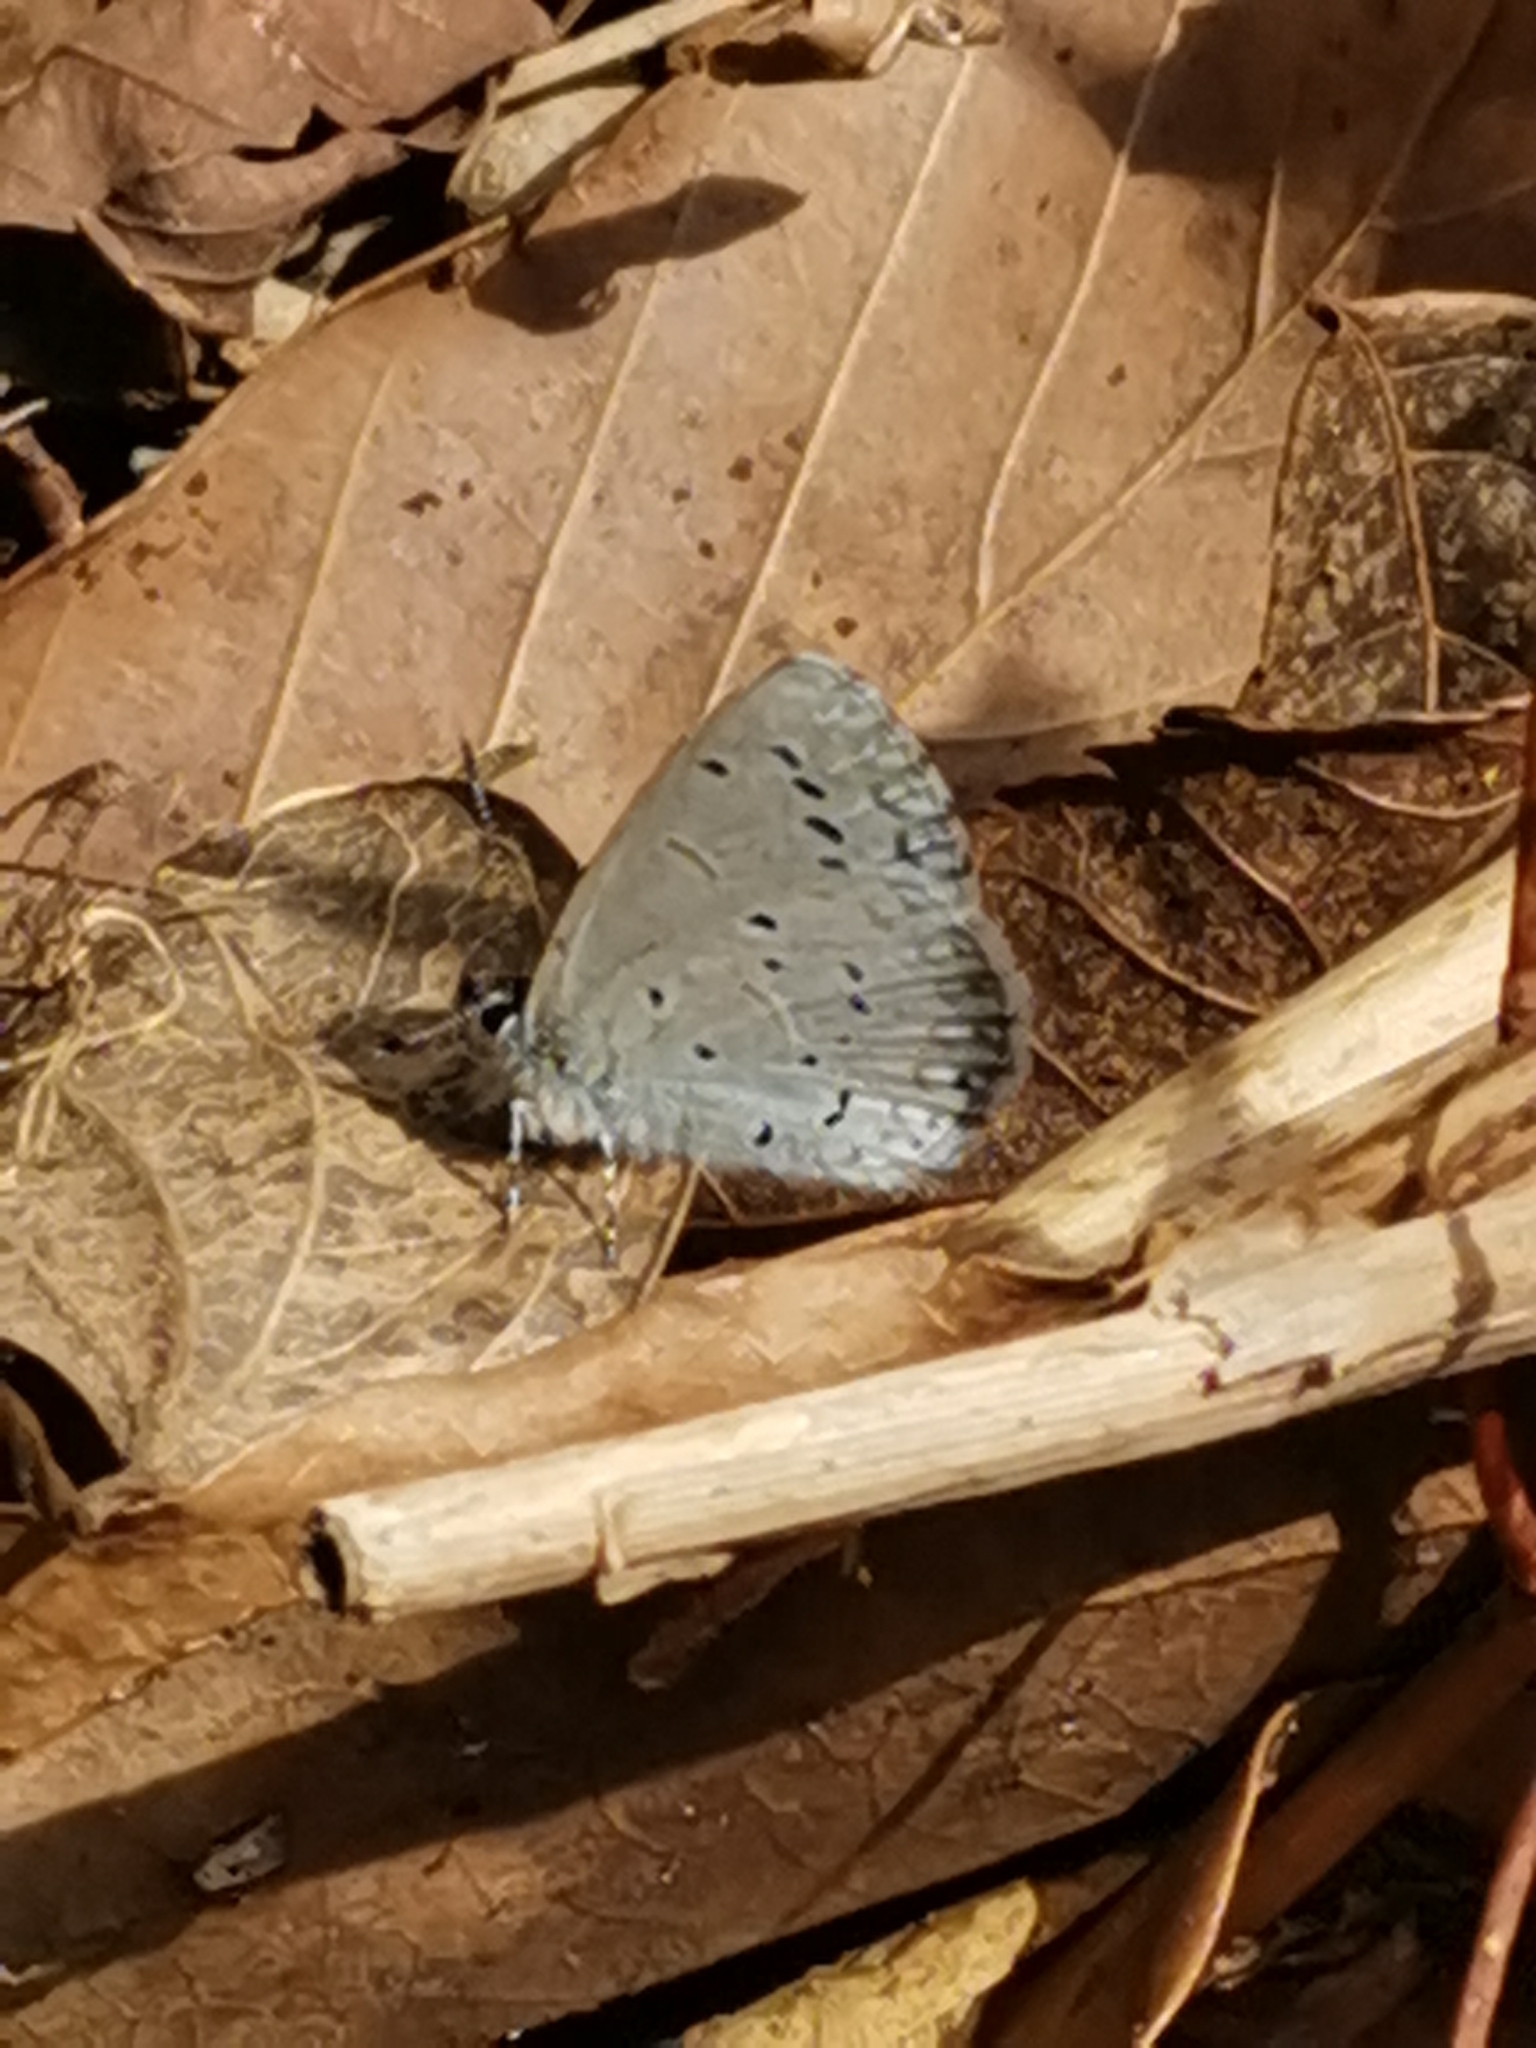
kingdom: Animalia
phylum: Arthropoda
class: Insecta
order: Lepidoptera
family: Lycaenidae
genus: Celastrina
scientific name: Celastrina argiolus
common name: Holly blue
